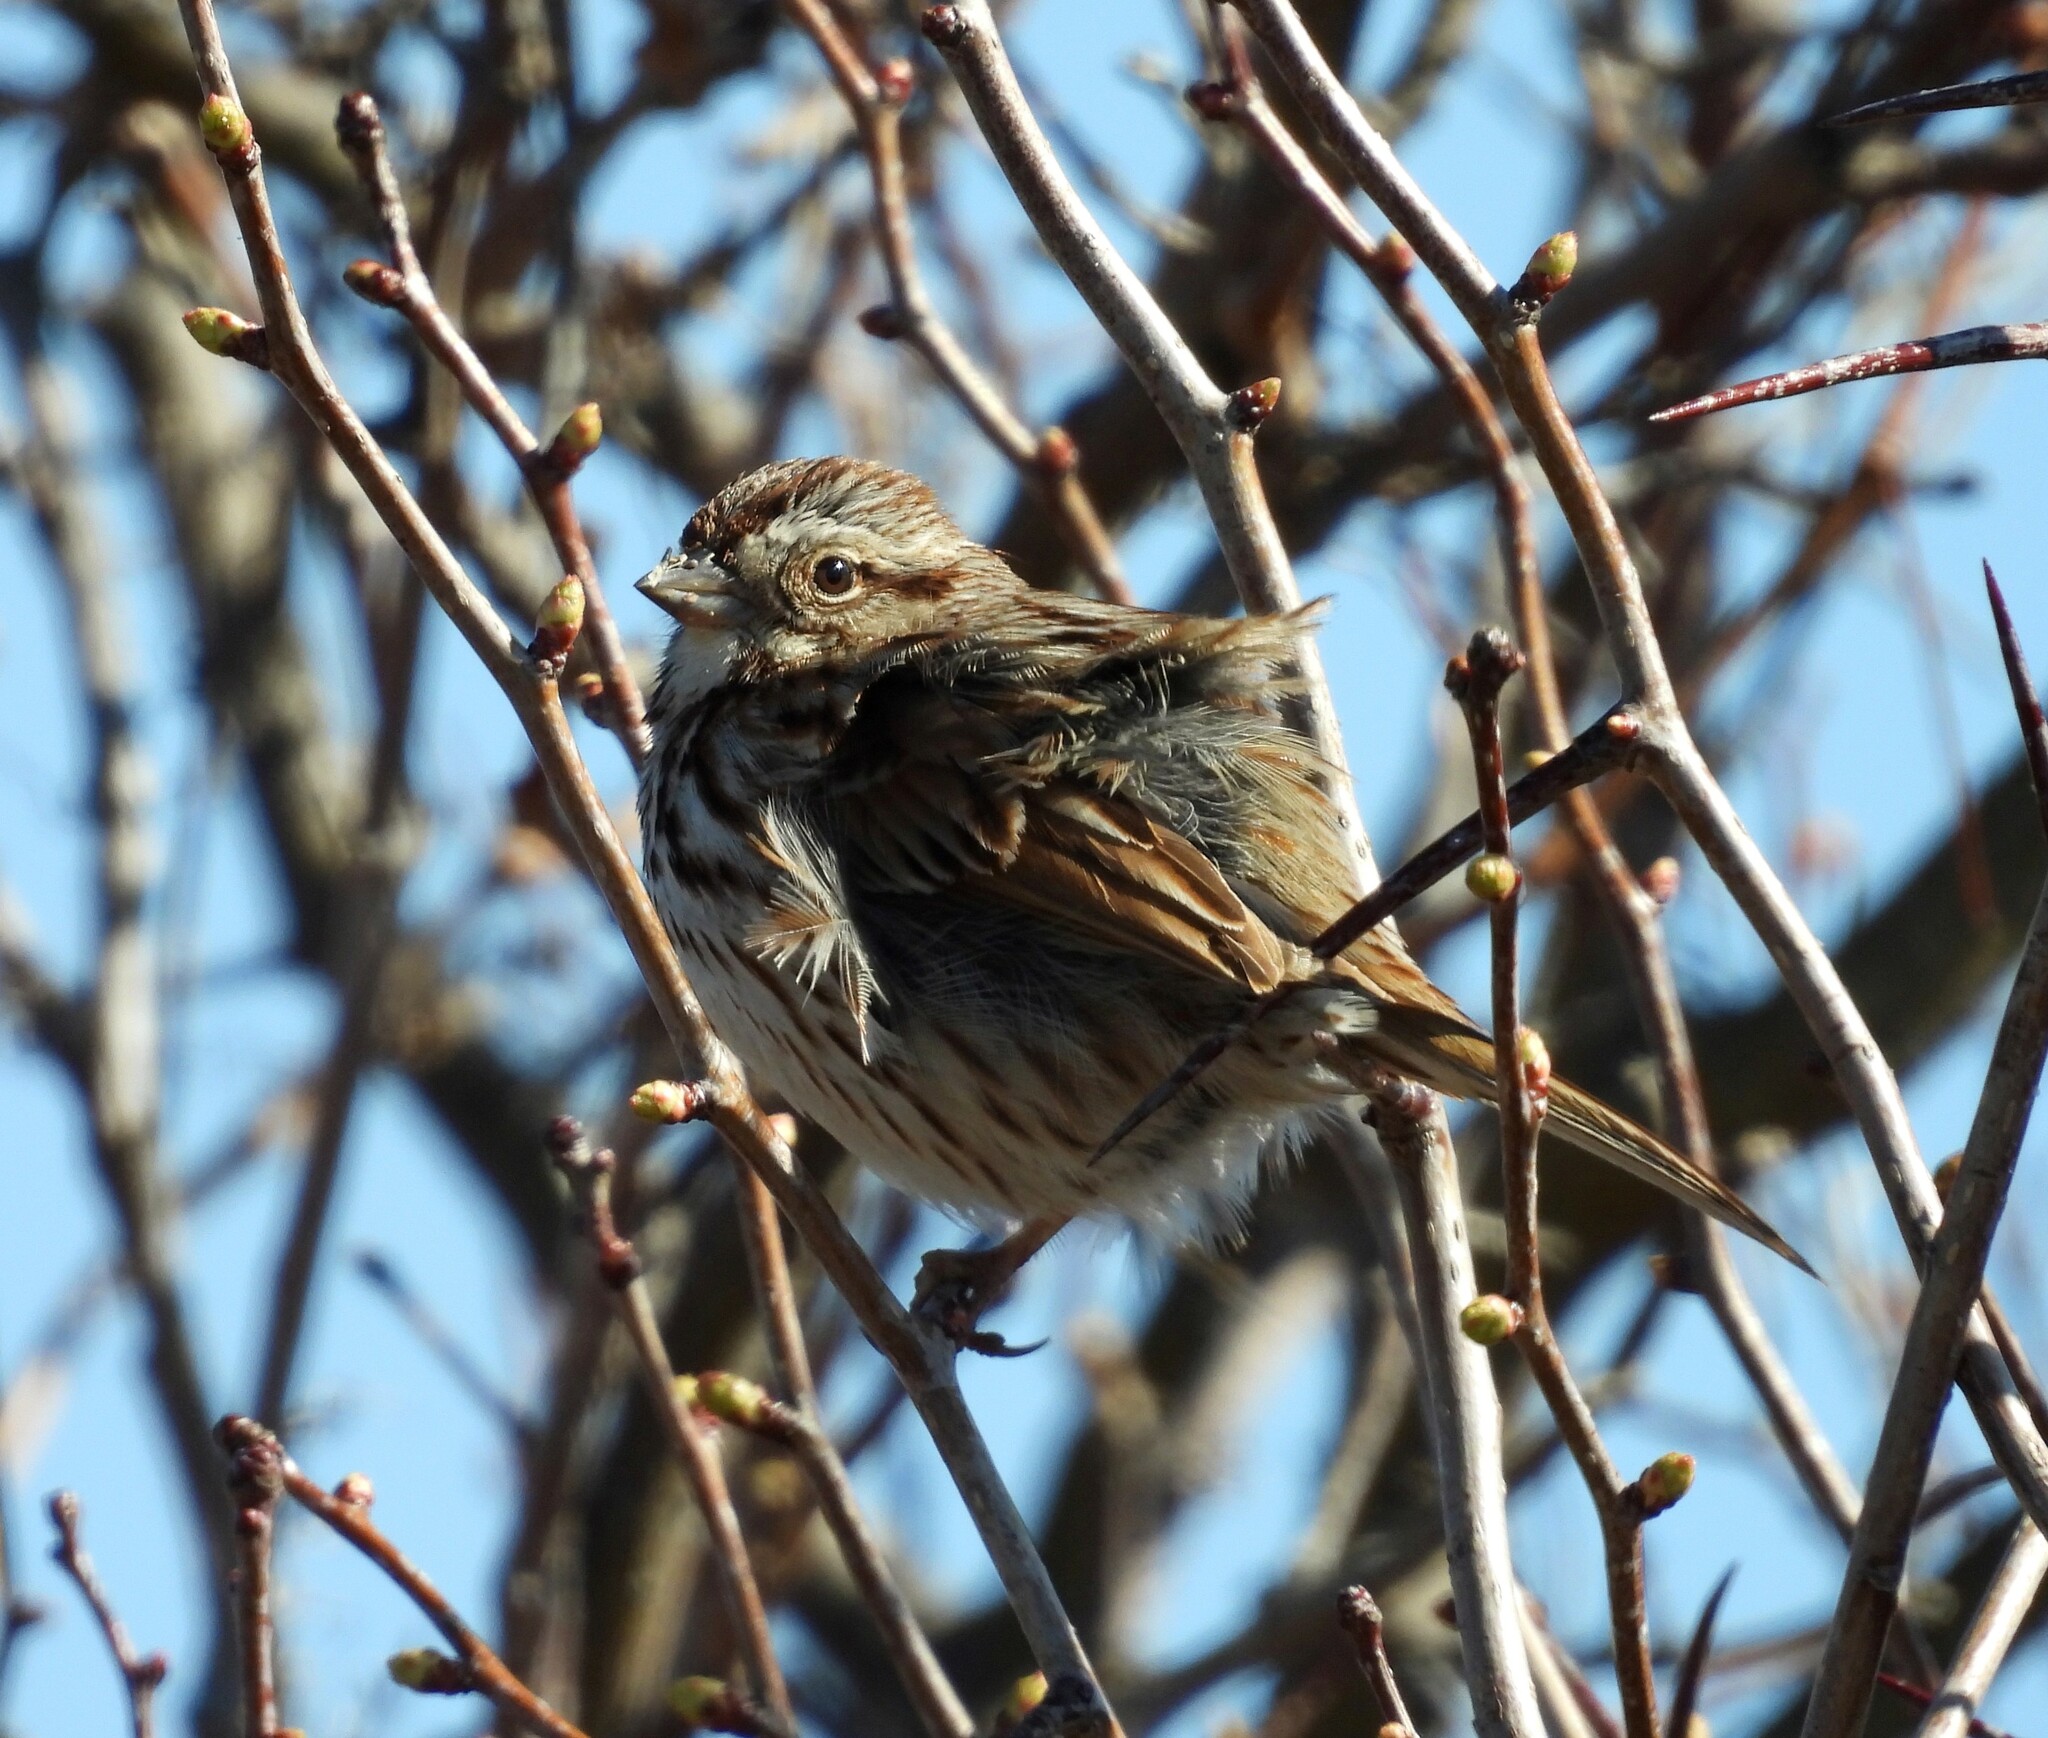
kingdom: Animalia
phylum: Chordata
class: Aves
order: Passeriformes
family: Passerellidae
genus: Melospiza
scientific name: Melospiza melodia
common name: Song sparrow
